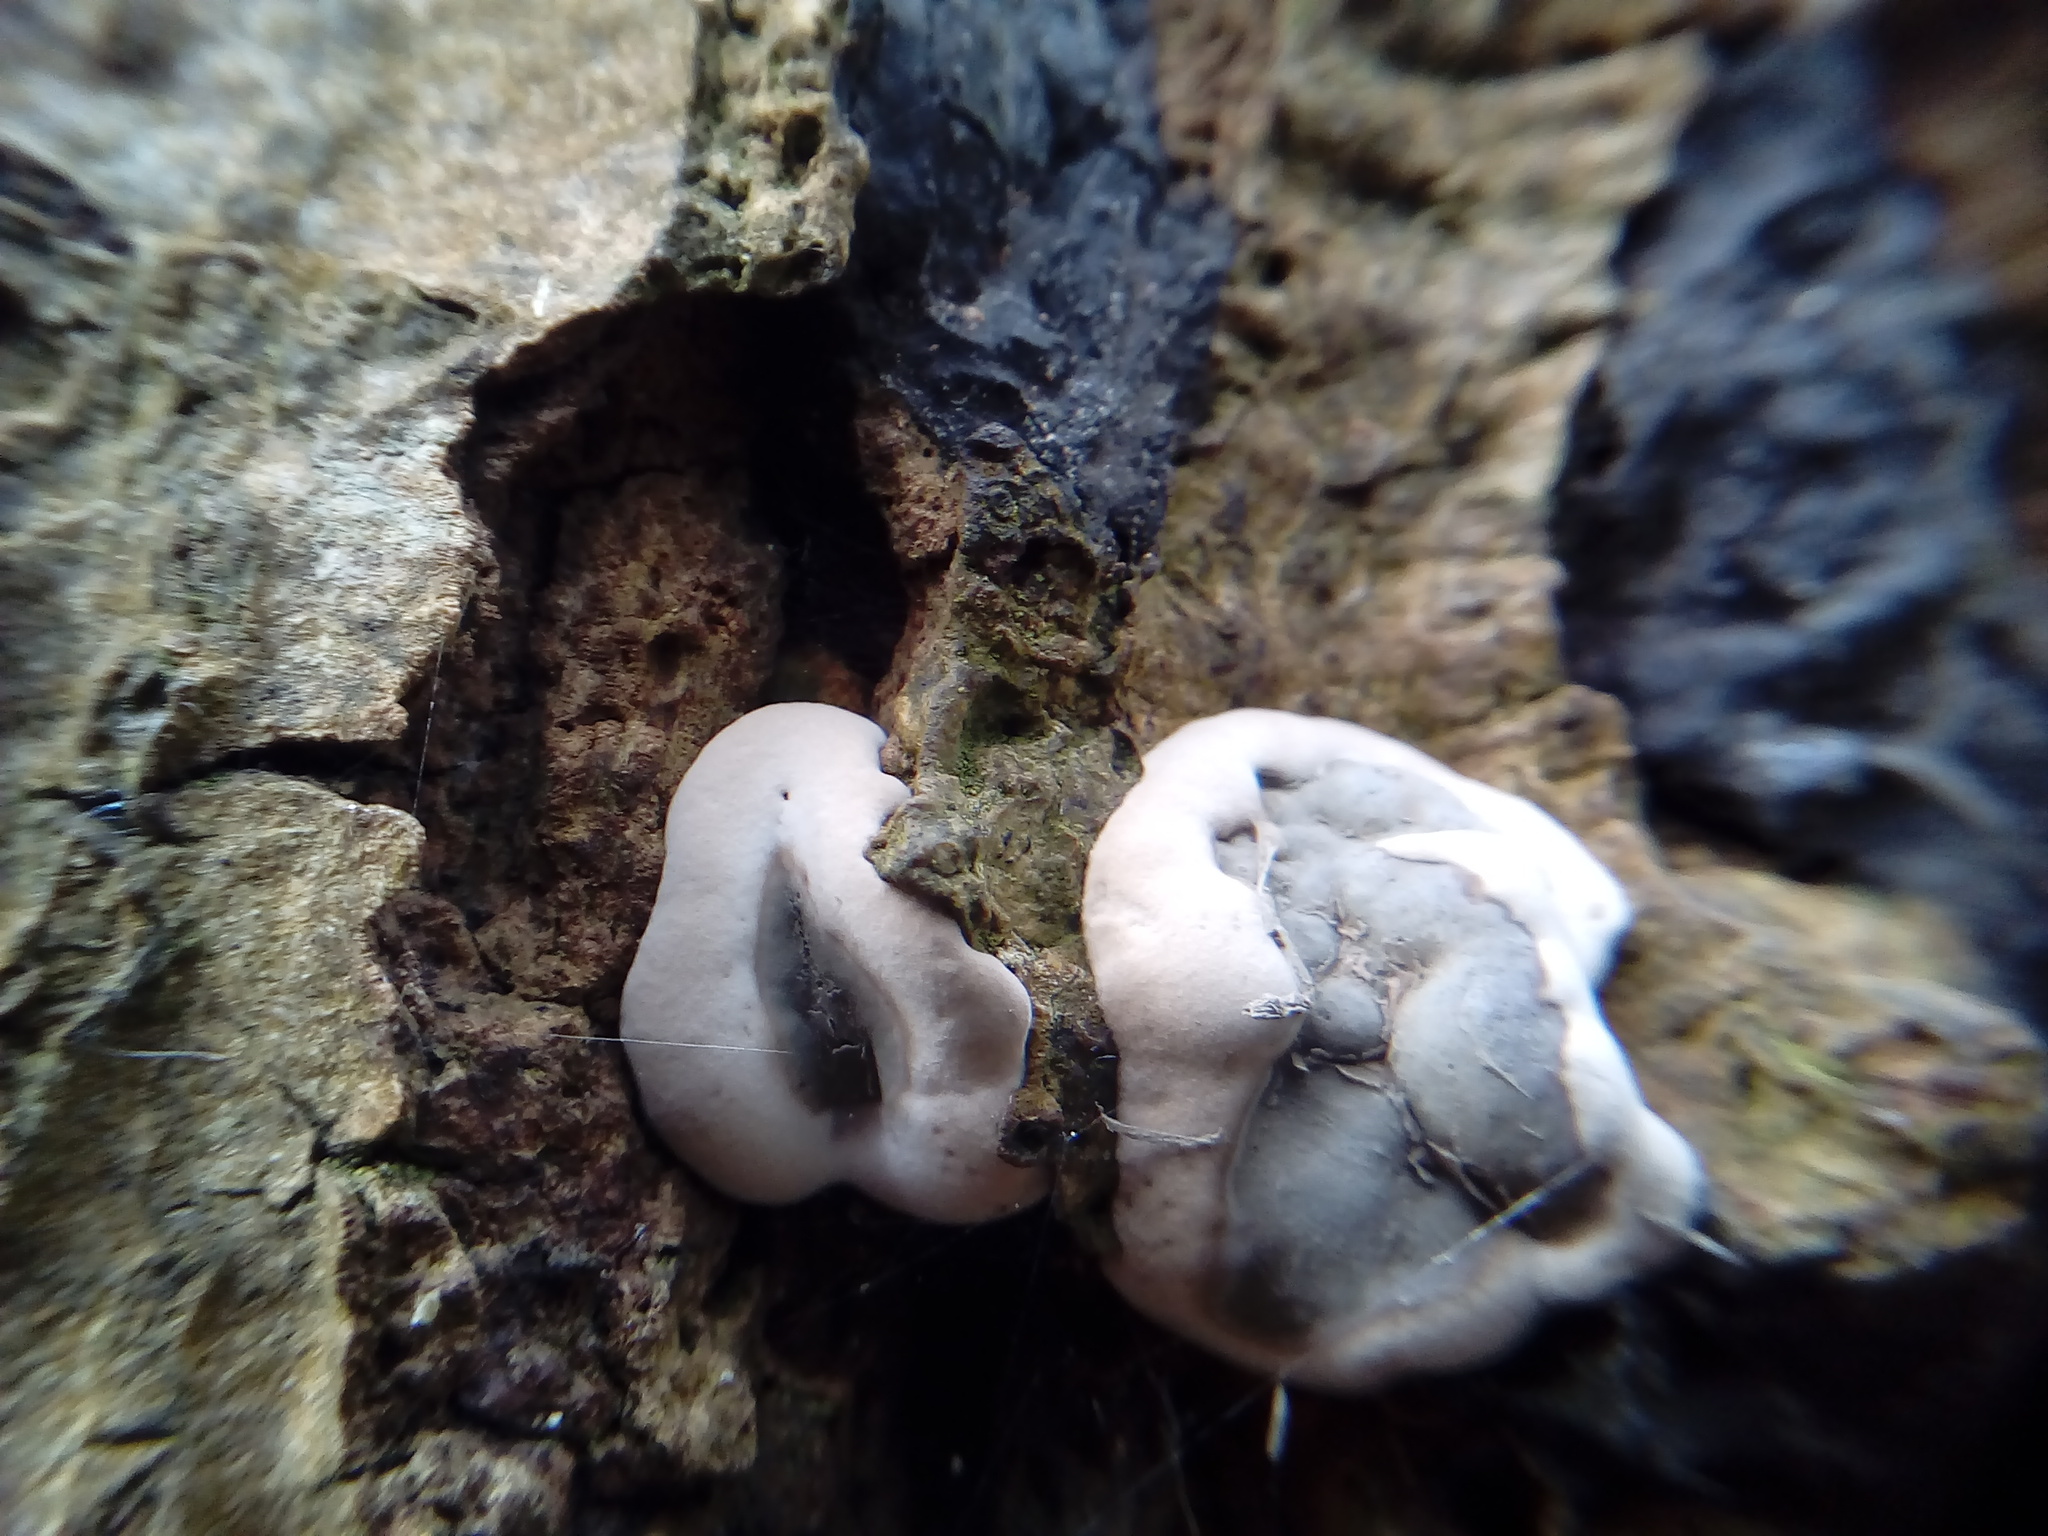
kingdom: Fungi
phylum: Ascomycota
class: Sordariomycetes
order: Xylariales
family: Xylariaceae
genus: Kretzschmaria
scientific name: Kretzschmaria deusta
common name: Brittle cinder
